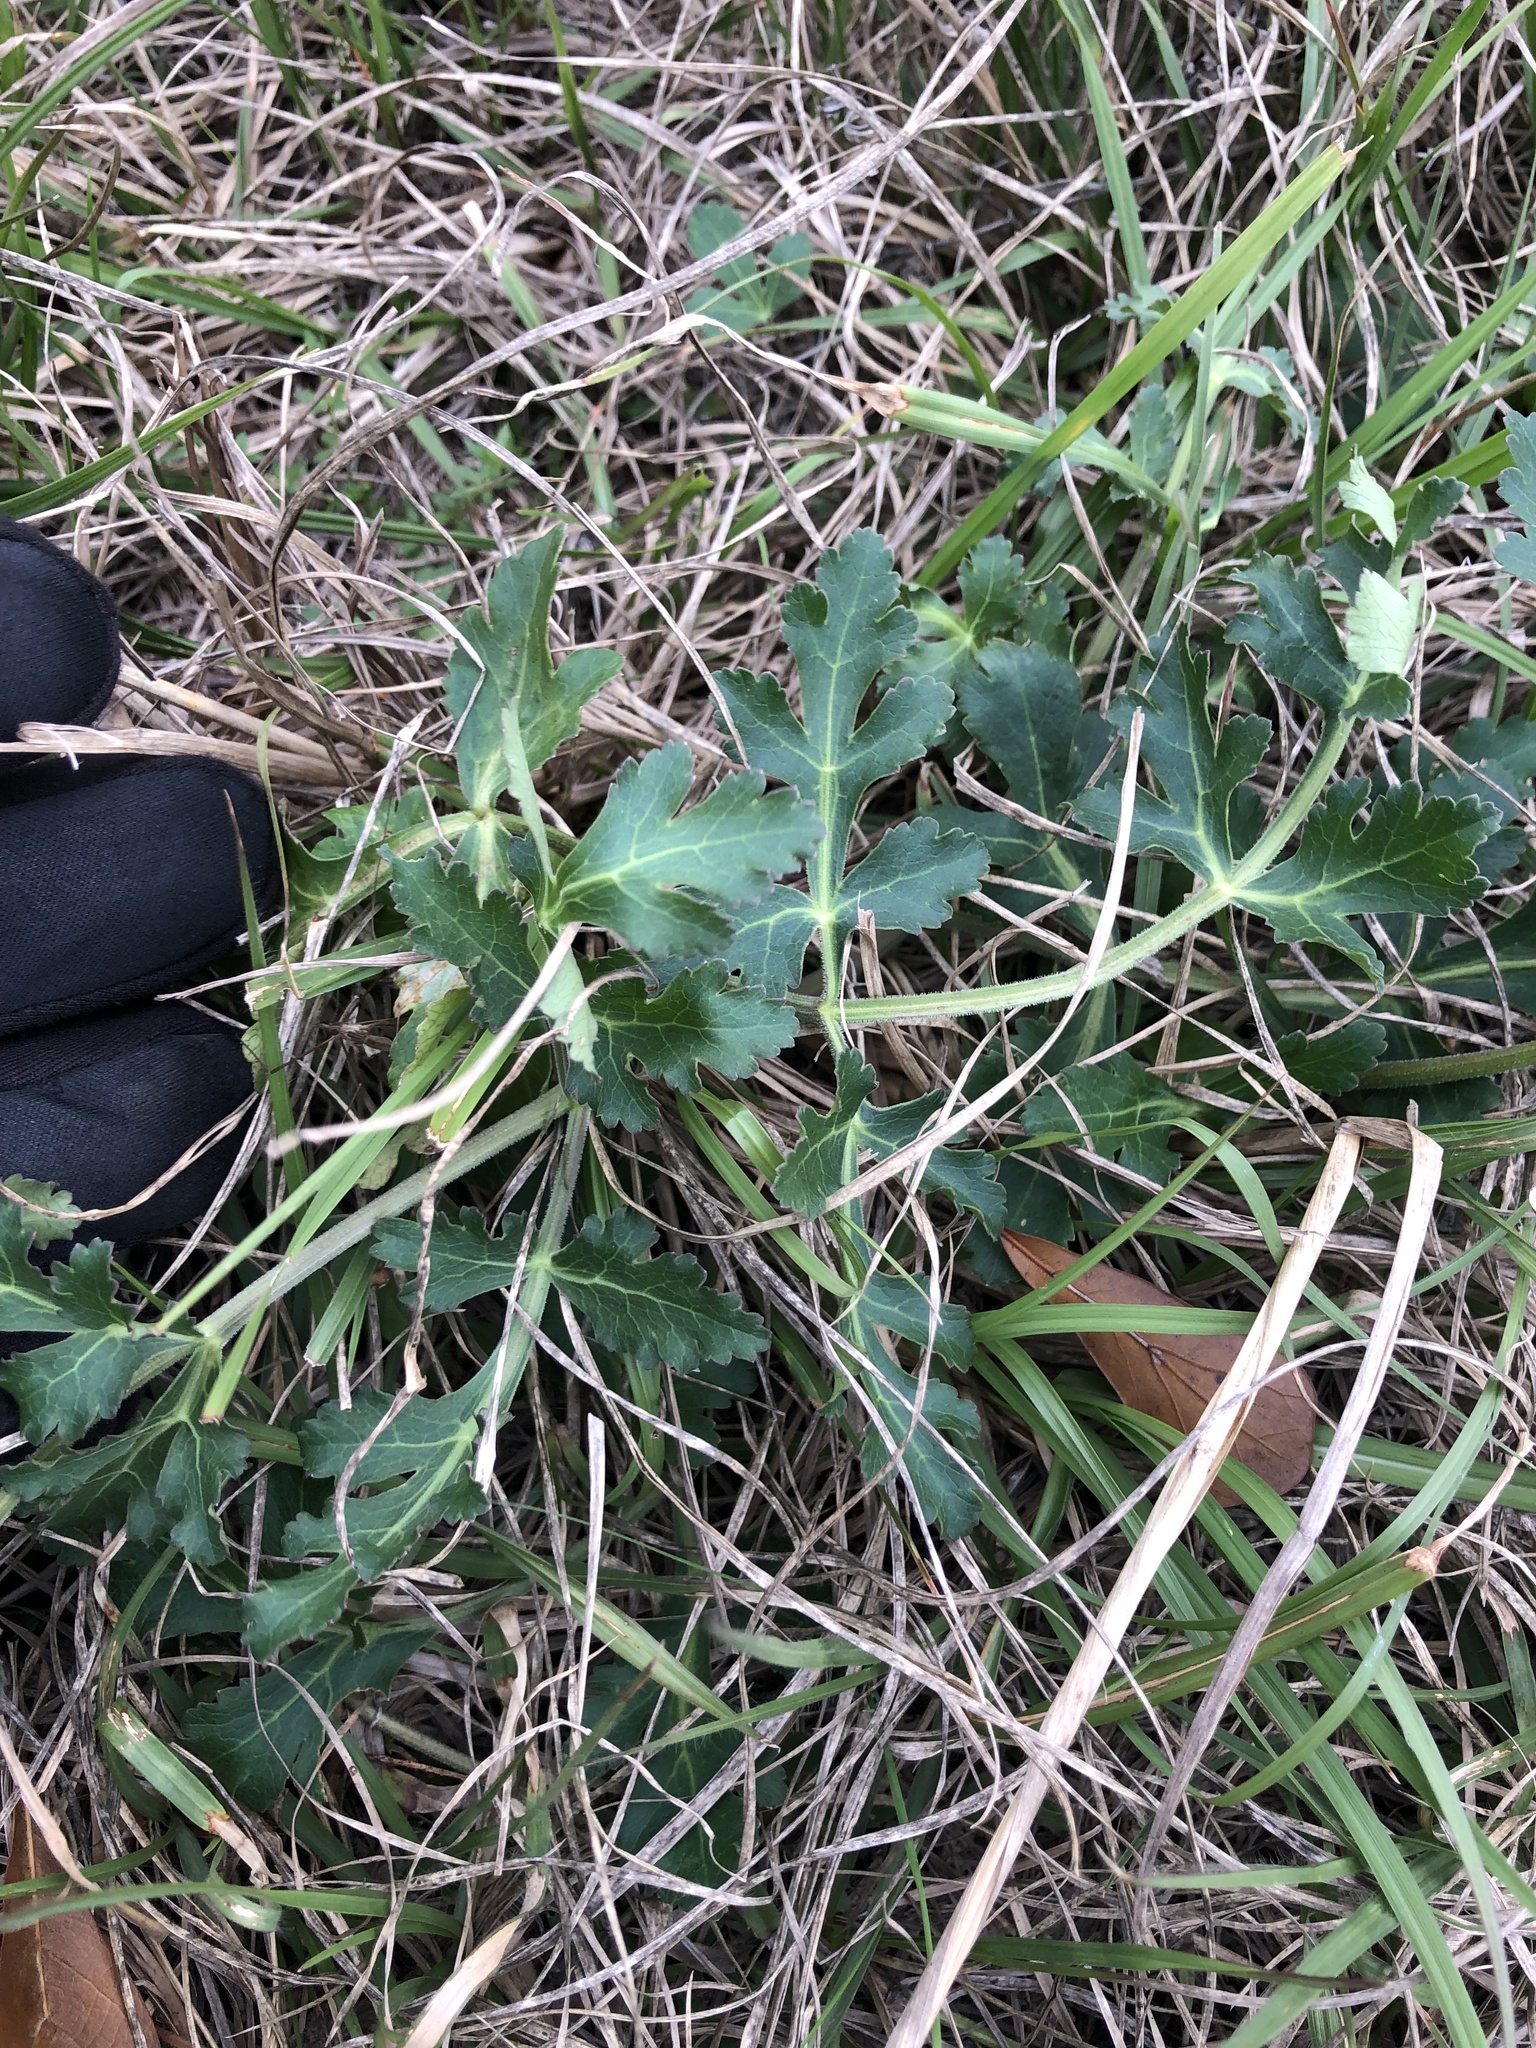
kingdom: Plantae
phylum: Tracheophyta
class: Magnoliopsida
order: Apiales
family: Apiaceae
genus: Polytaenia
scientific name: Polytaenia texana
